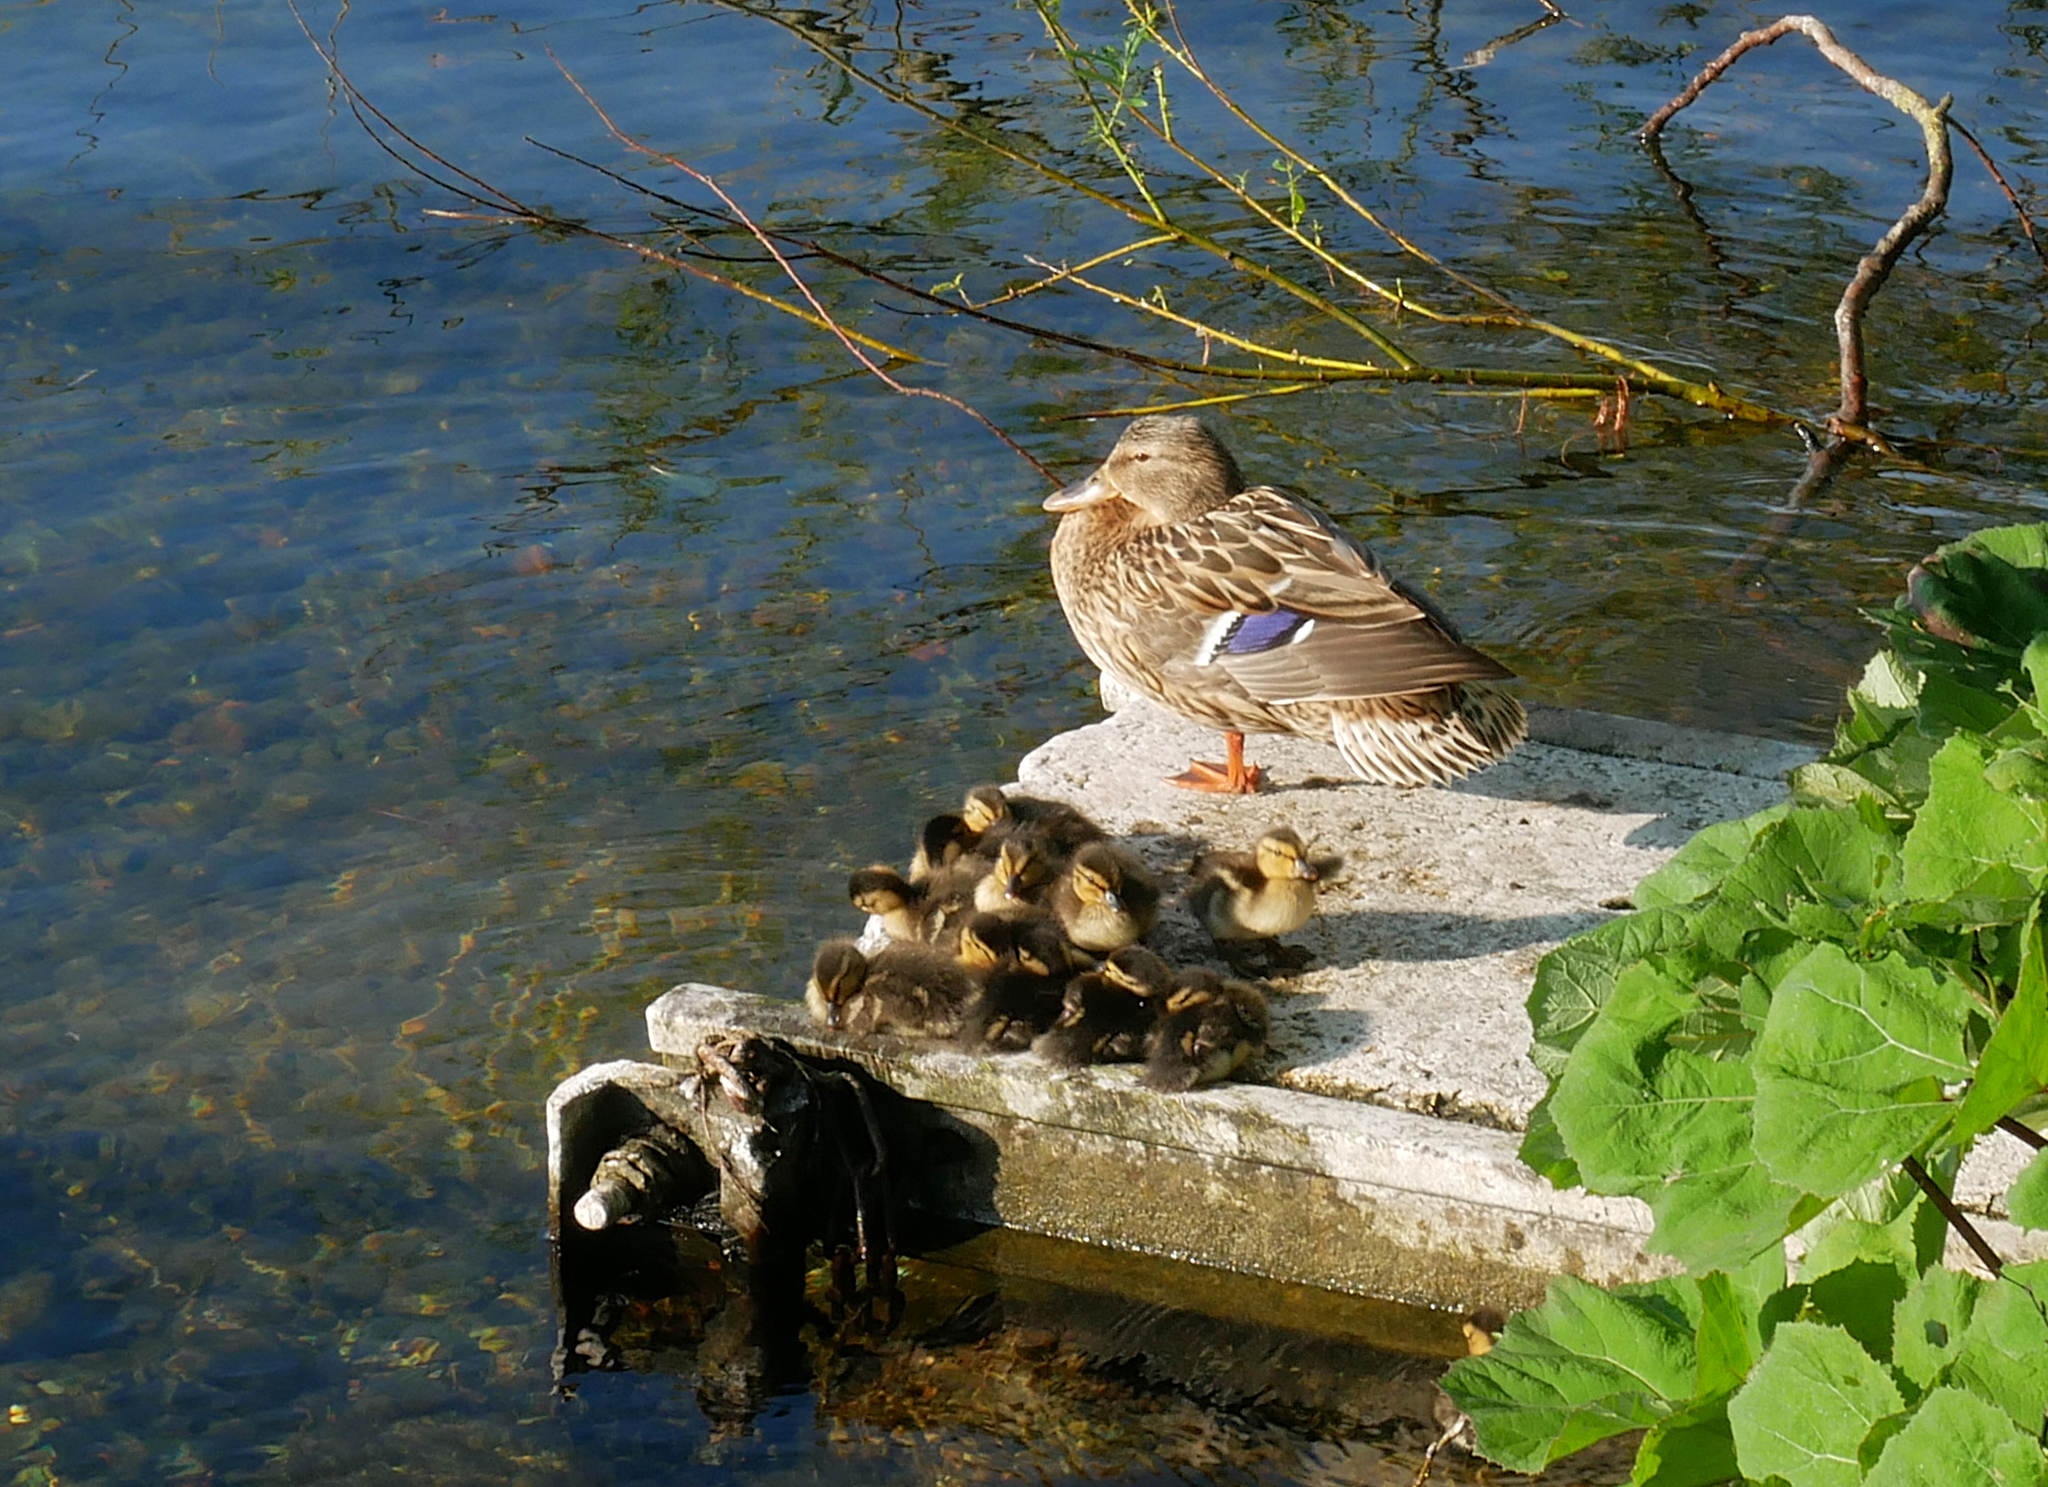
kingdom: Animalia
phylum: Chordata
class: Aves
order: Anseriformes
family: Anatidae
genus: Anas
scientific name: Anas platyrhynchos
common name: Mallard
